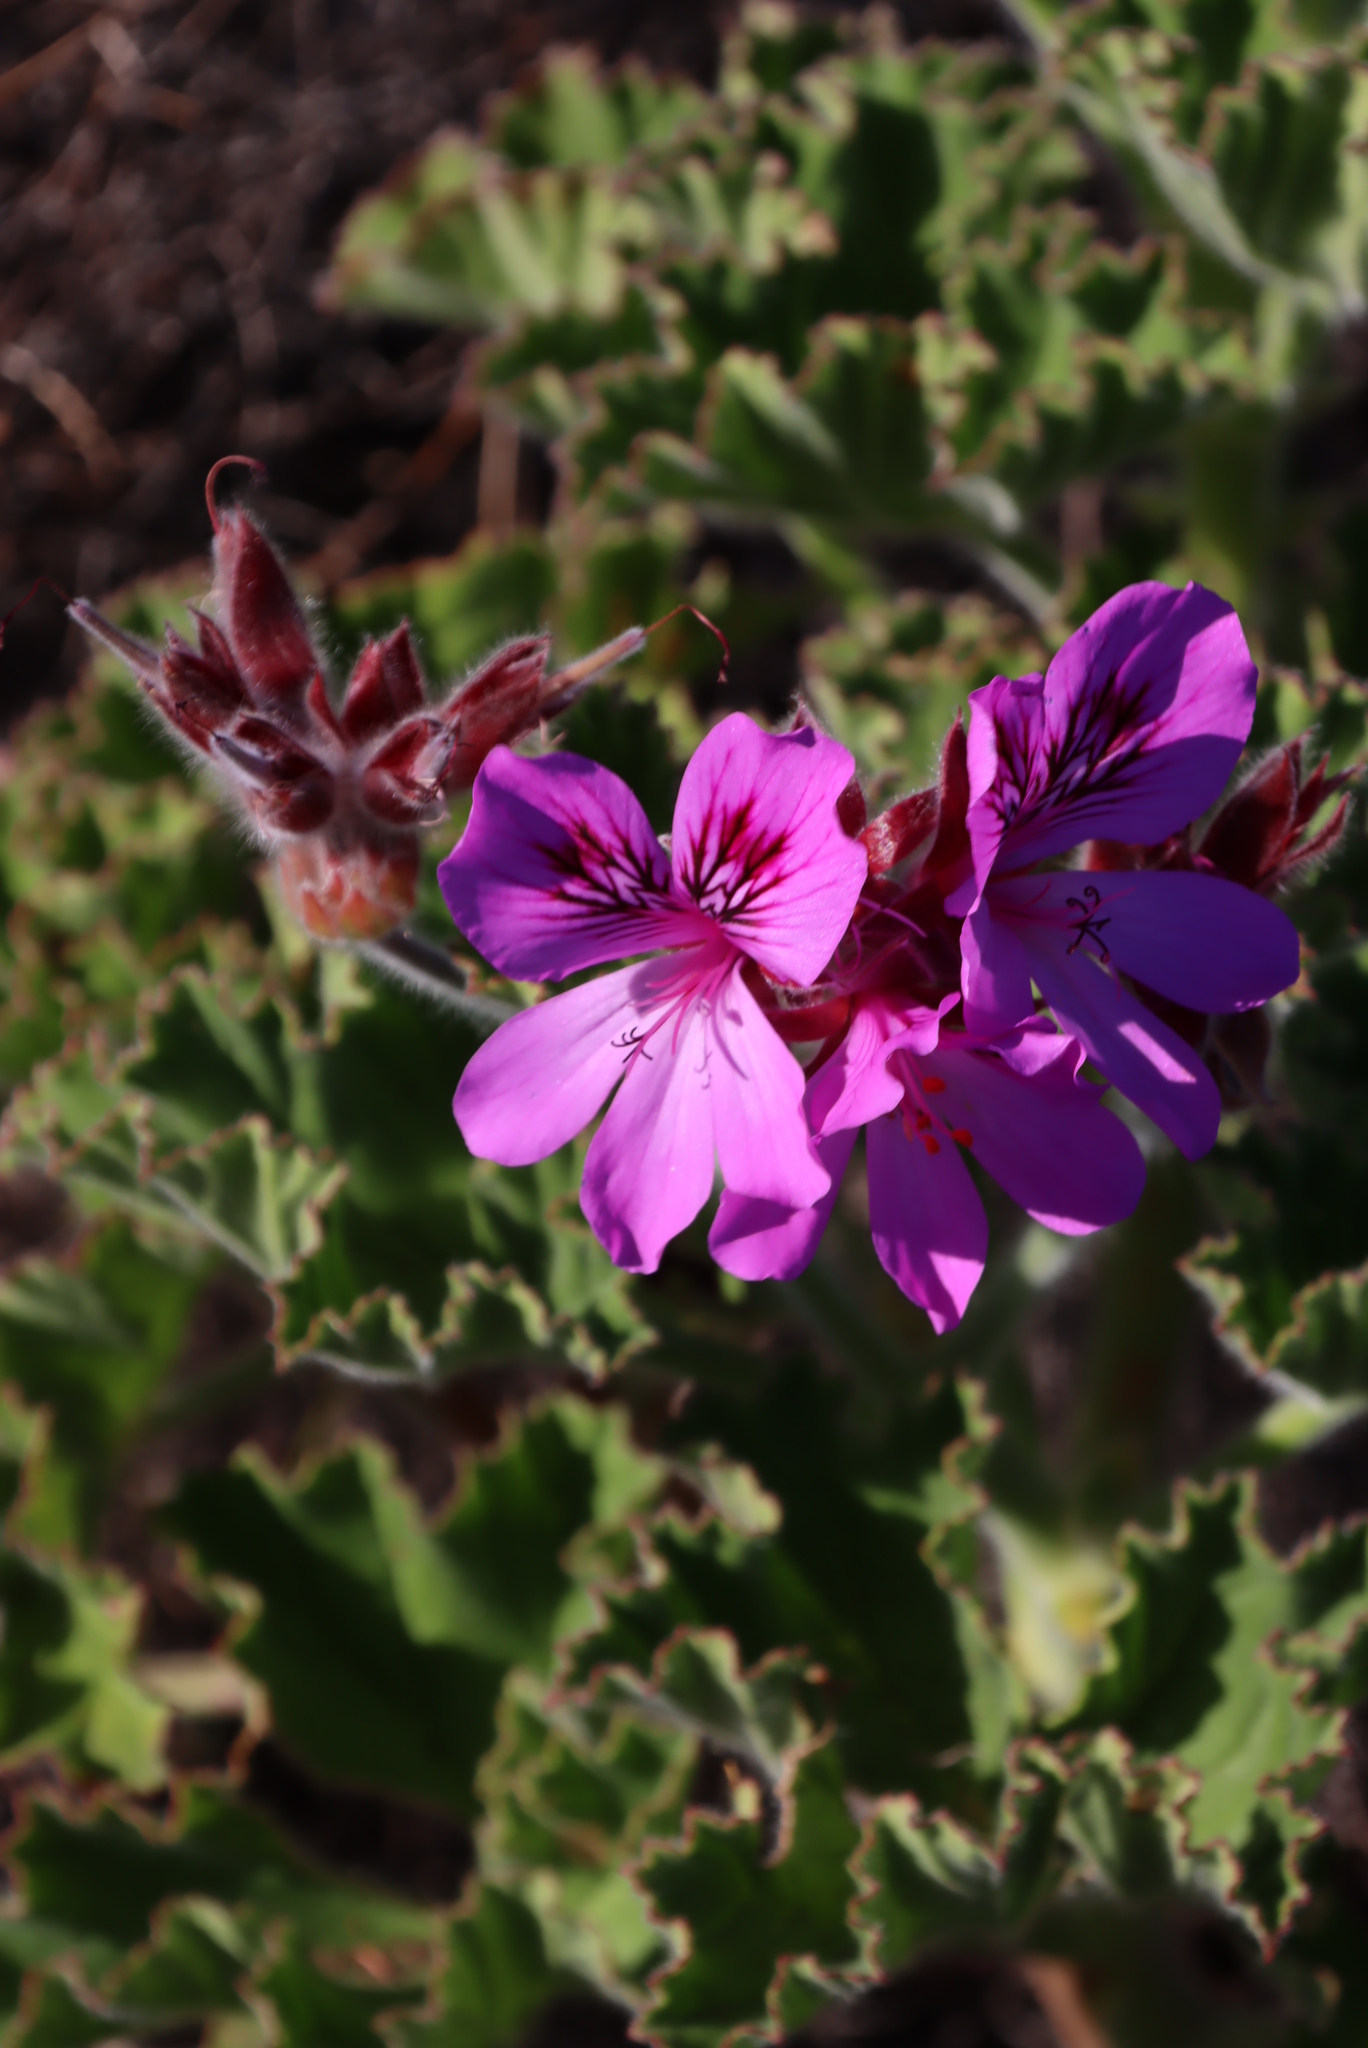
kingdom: Plantae
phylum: Tracheophyta
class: Magnoliopsida
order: Geraniales
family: Geraniaceae
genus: Pelargonium
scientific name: Pelargonium cucullatum
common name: Tree pelargonium
